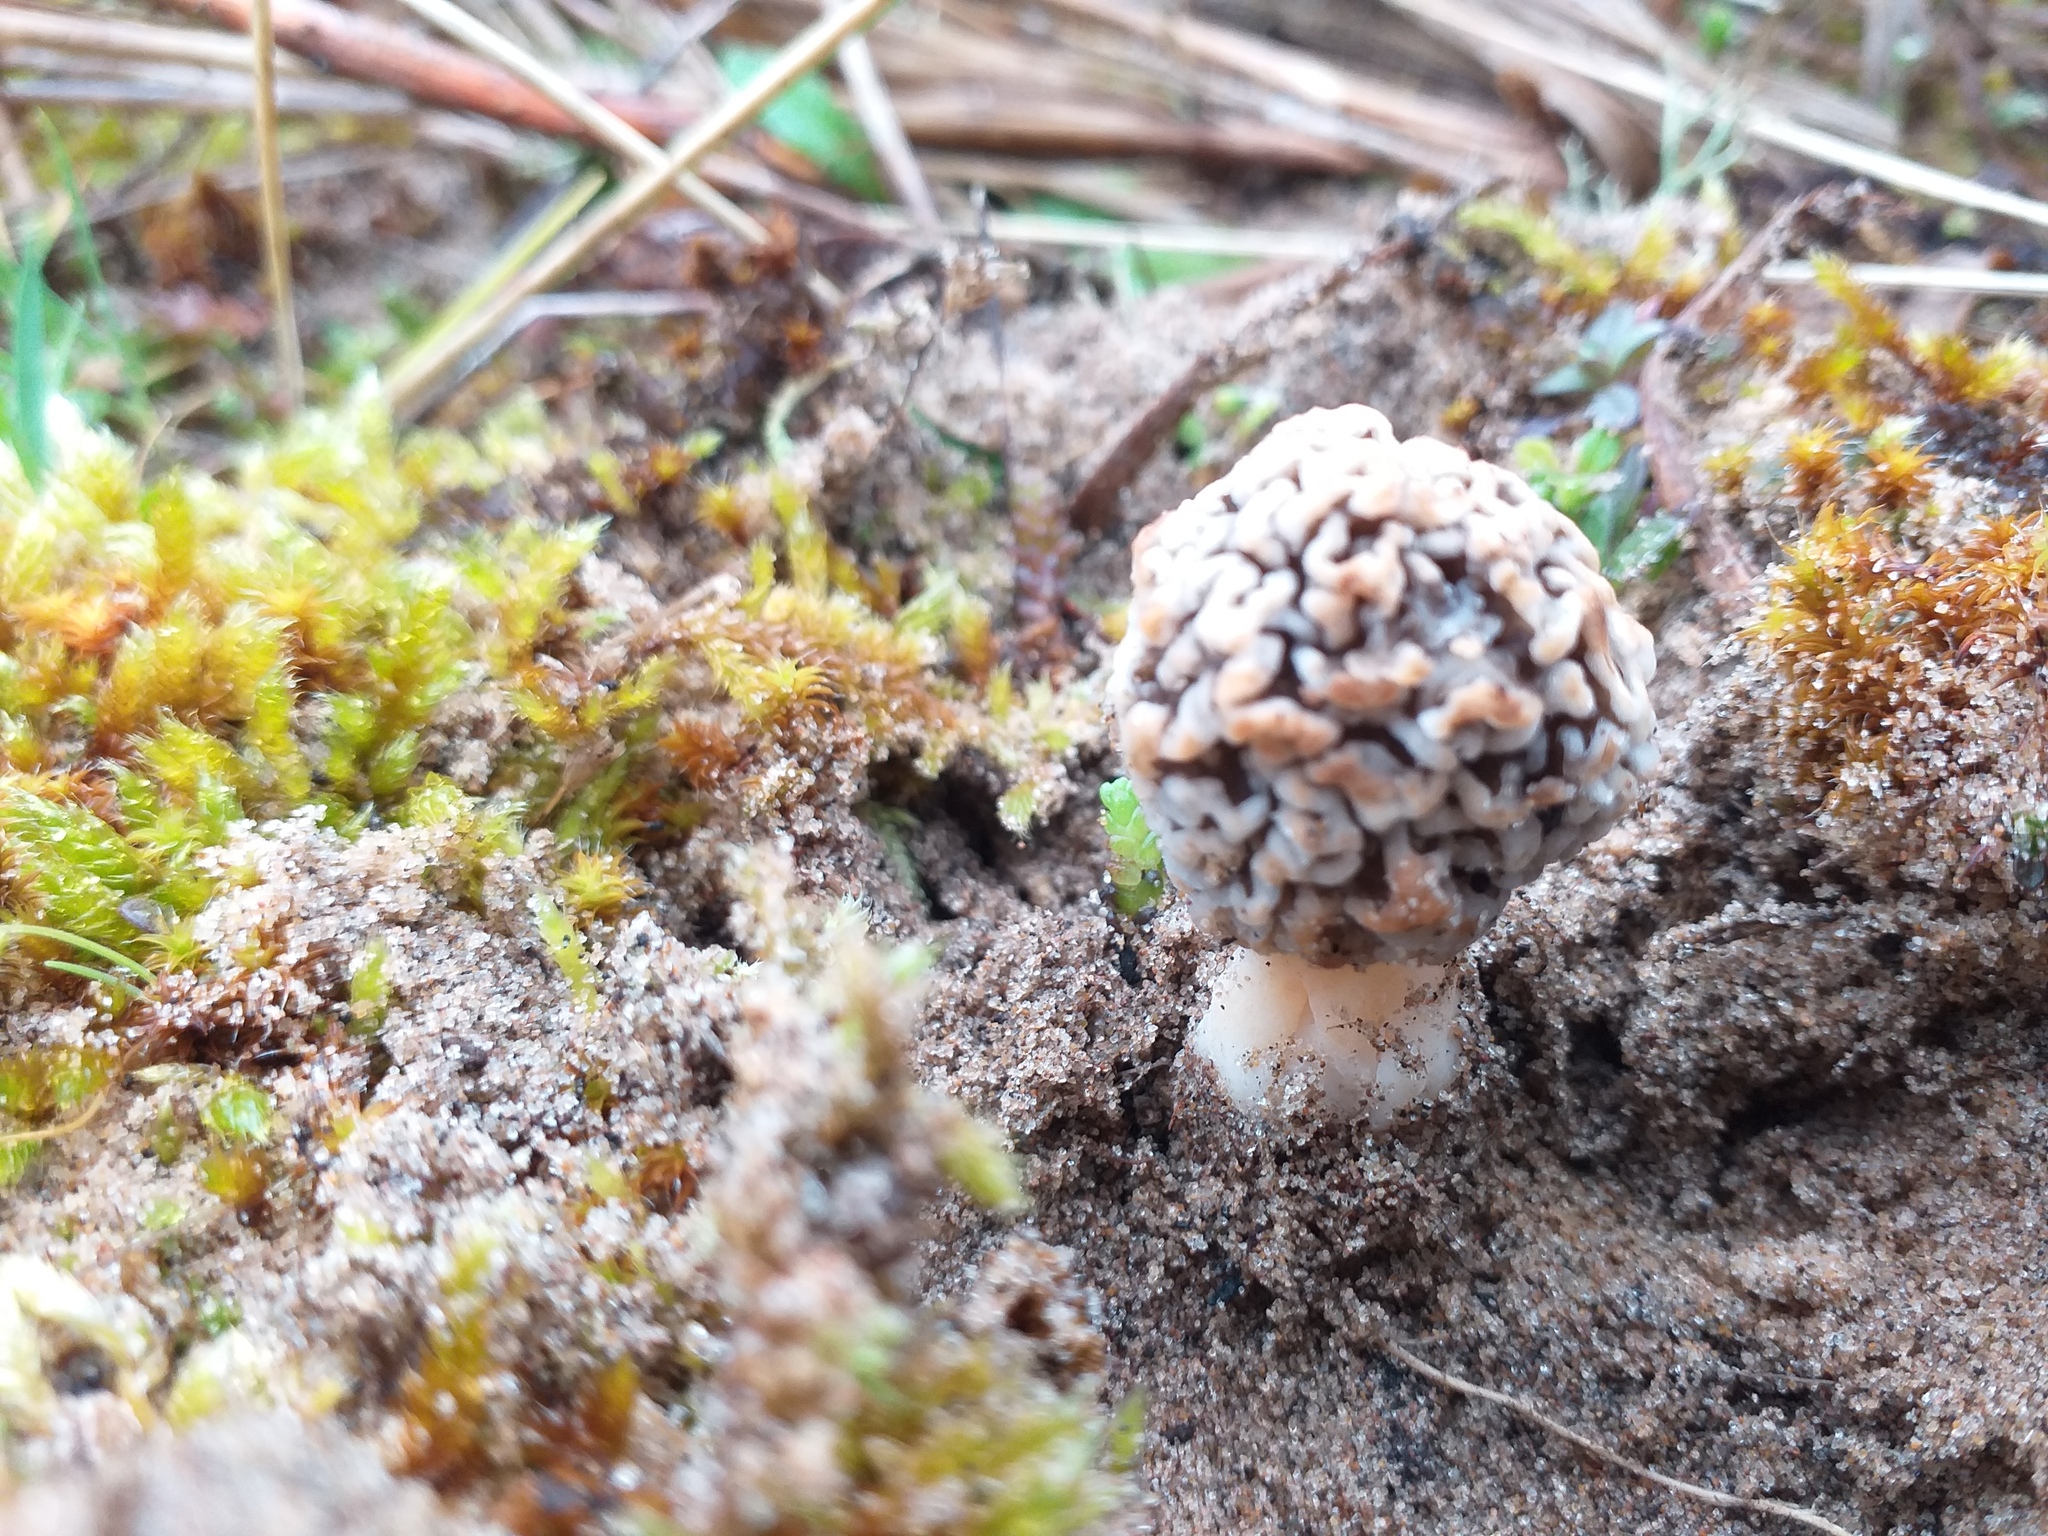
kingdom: Fungi
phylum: Ascomycota
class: Pezizomycetes
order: Pezizales
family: Morchellaceae
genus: Morchella
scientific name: Morchella esculenta
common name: Morel
